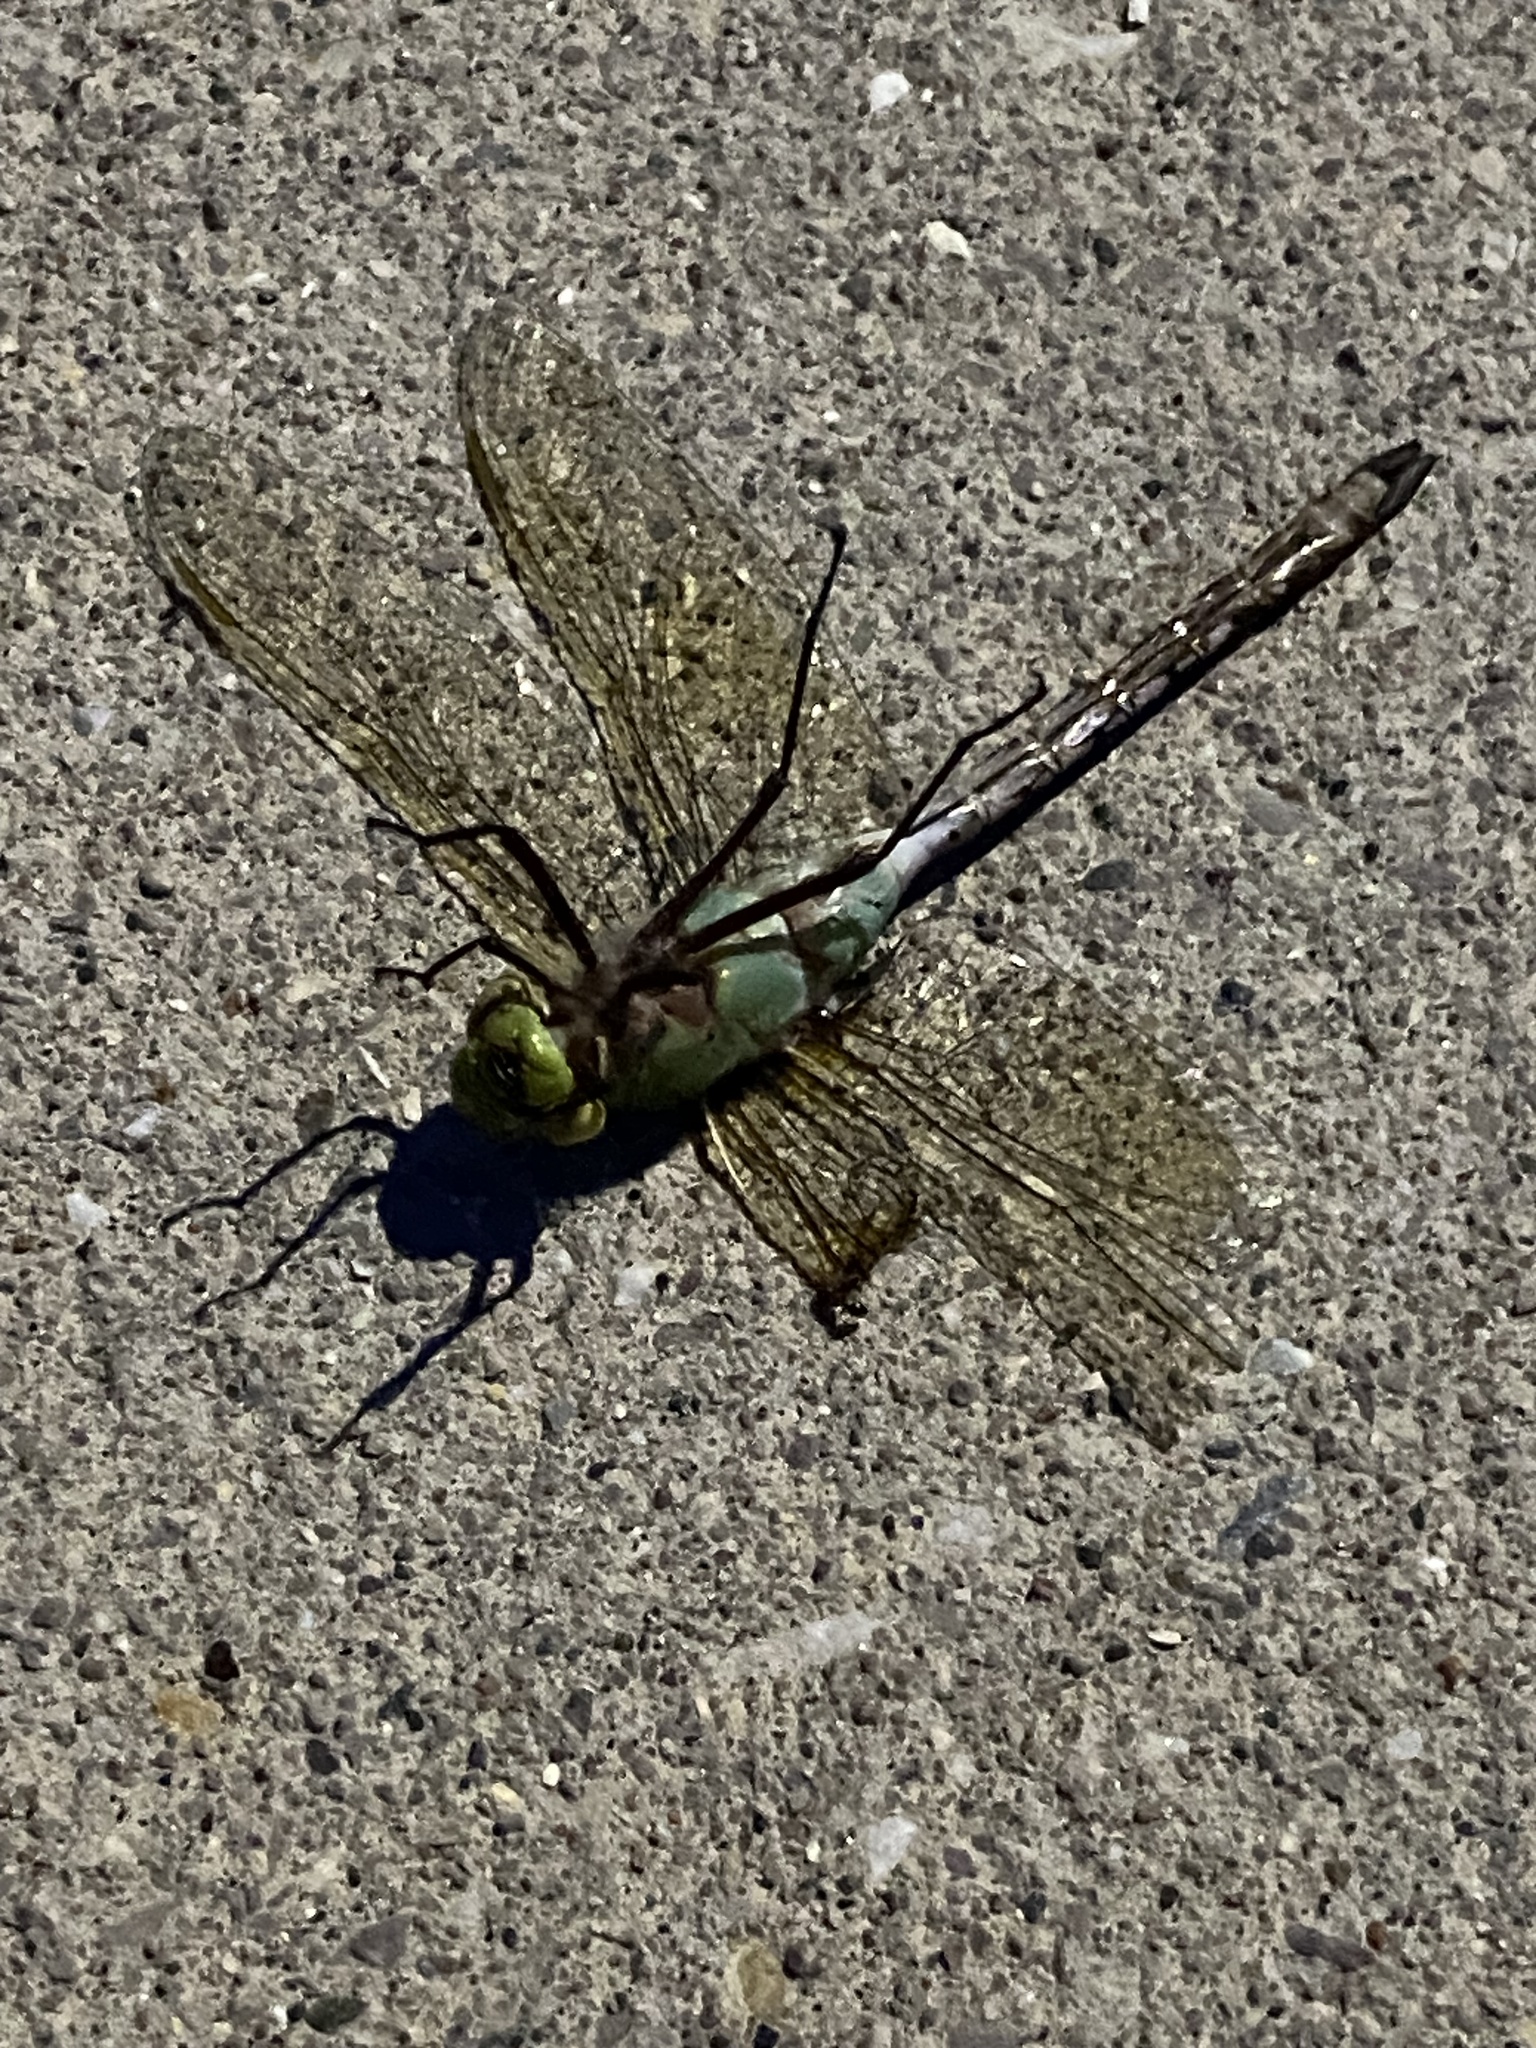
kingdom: Animalia
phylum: Arthropoda
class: Insecta
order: Odonata
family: Aeshnidae
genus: Anax
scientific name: Anax junius
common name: Common green darner
